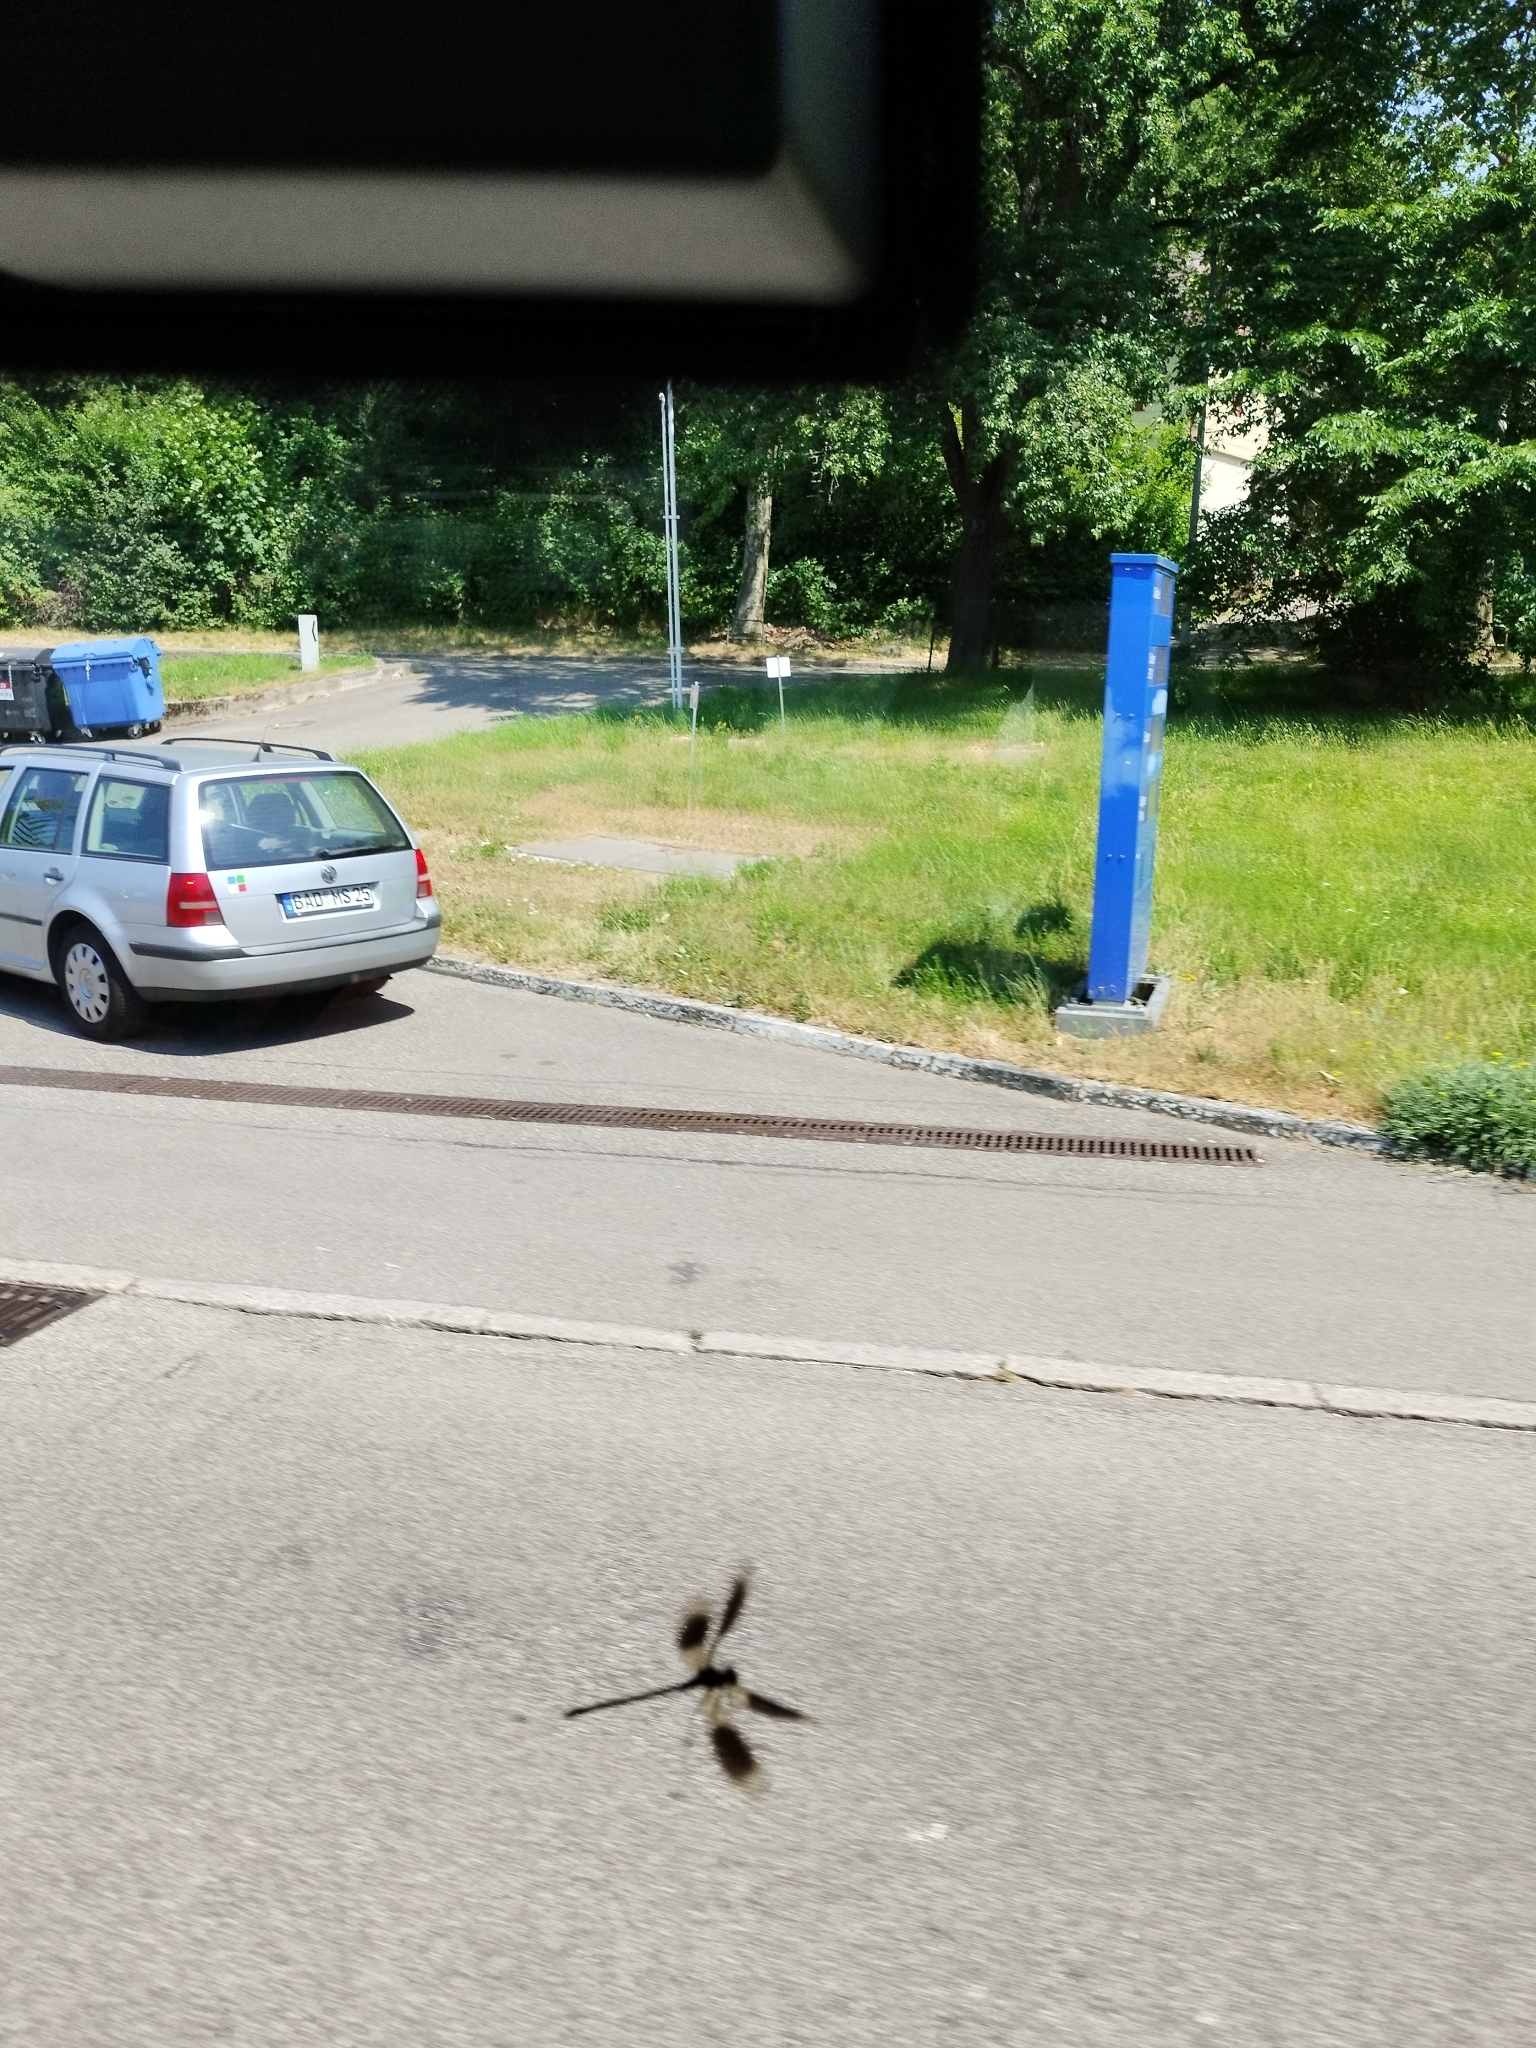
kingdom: Animalia
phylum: Arthropoda
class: Insecta
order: Odonata
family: Calopterygidae
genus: Calopteryx
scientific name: Calopteryx splendens
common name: Banded demoiselle
